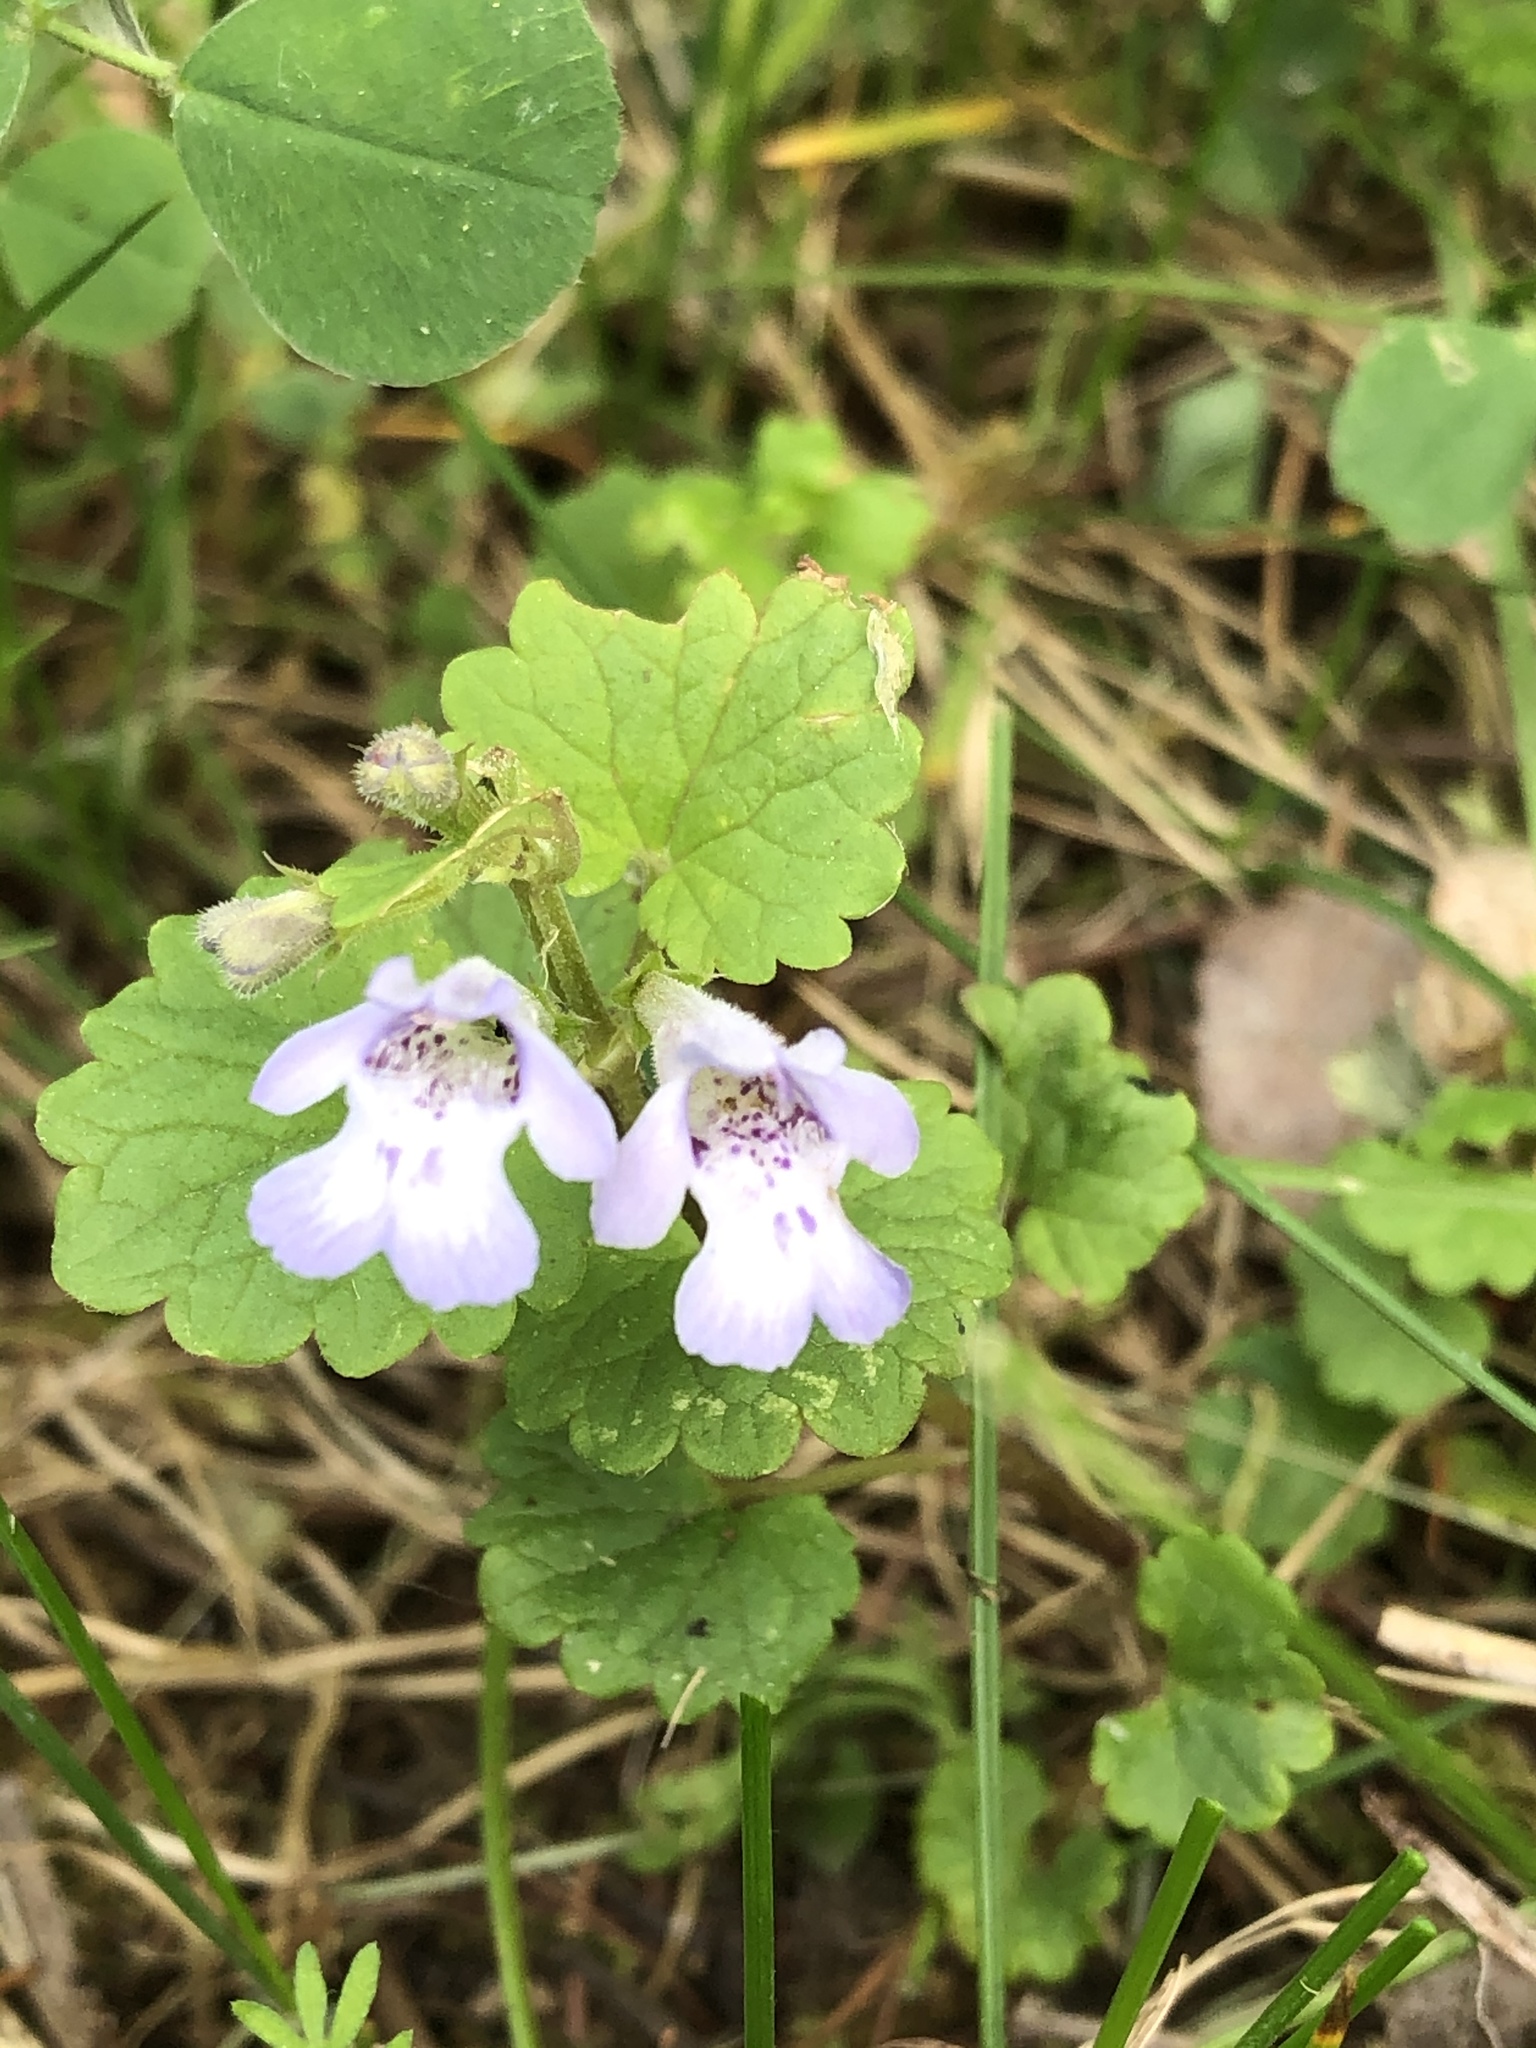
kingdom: Plantae
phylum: Tracheophyta
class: Magnoliopsida
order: Lamiales
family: Lamiaceae
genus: Glechoma
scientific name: Glechoma hederacea
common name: Ground ivy
